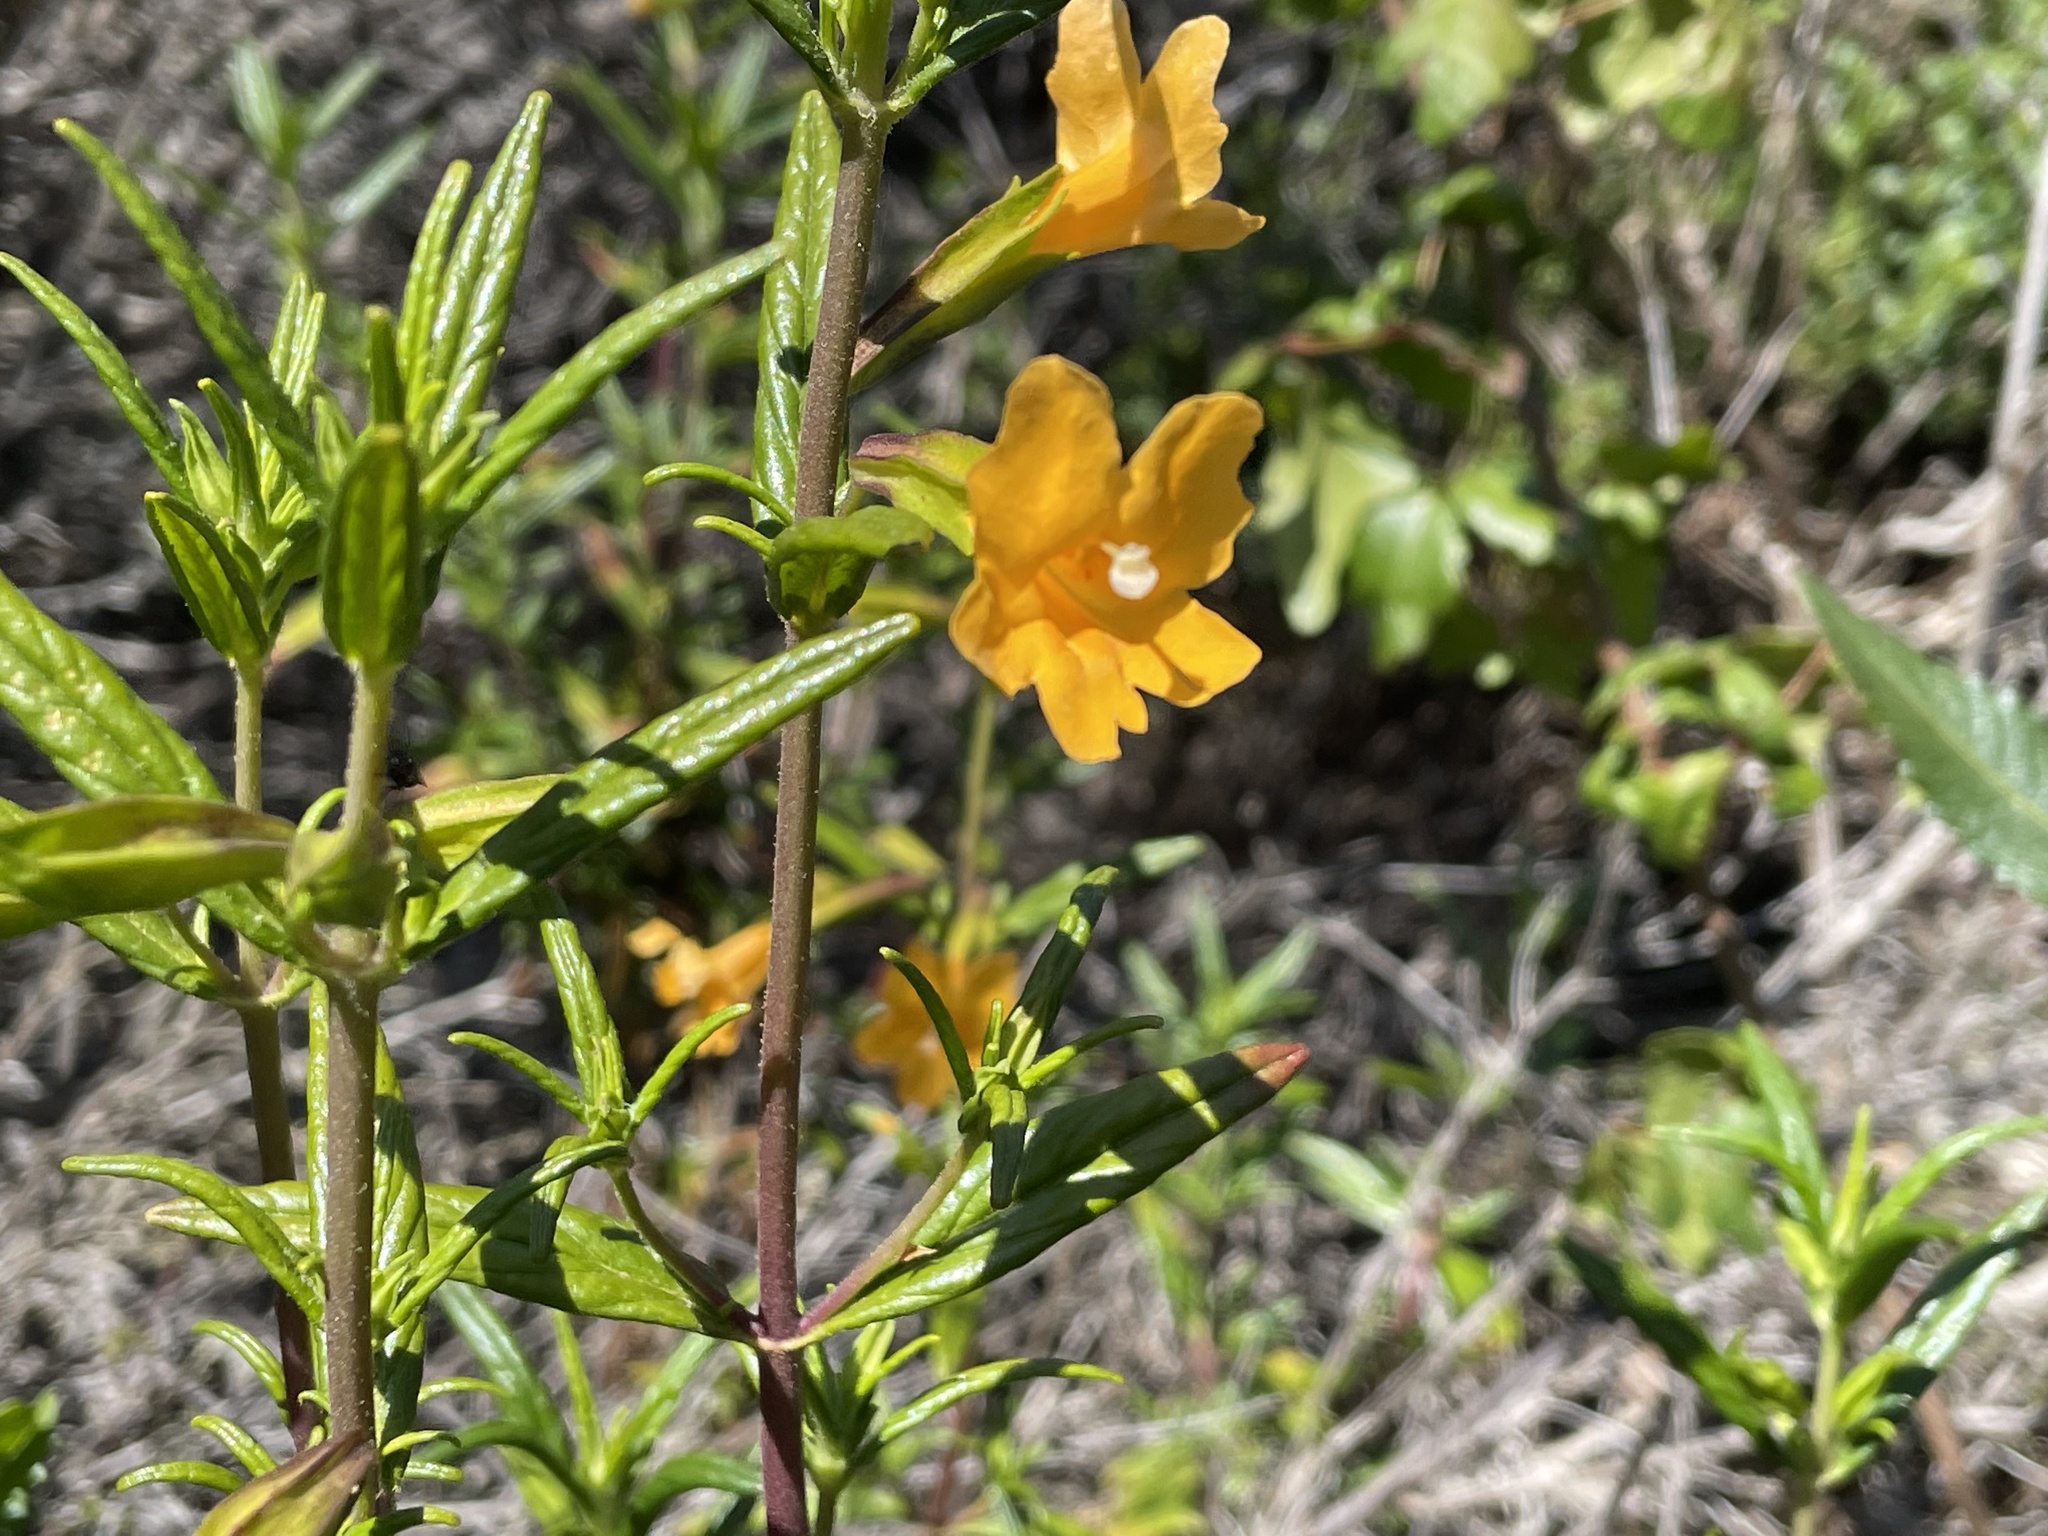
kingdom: Plantae
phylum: Tracheophyta
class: Magnoliopsida
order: Lamiales
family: Phrymaceae
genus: Diplacus
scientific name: Diplacus aurantiacus
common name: Bush monkey-flower
